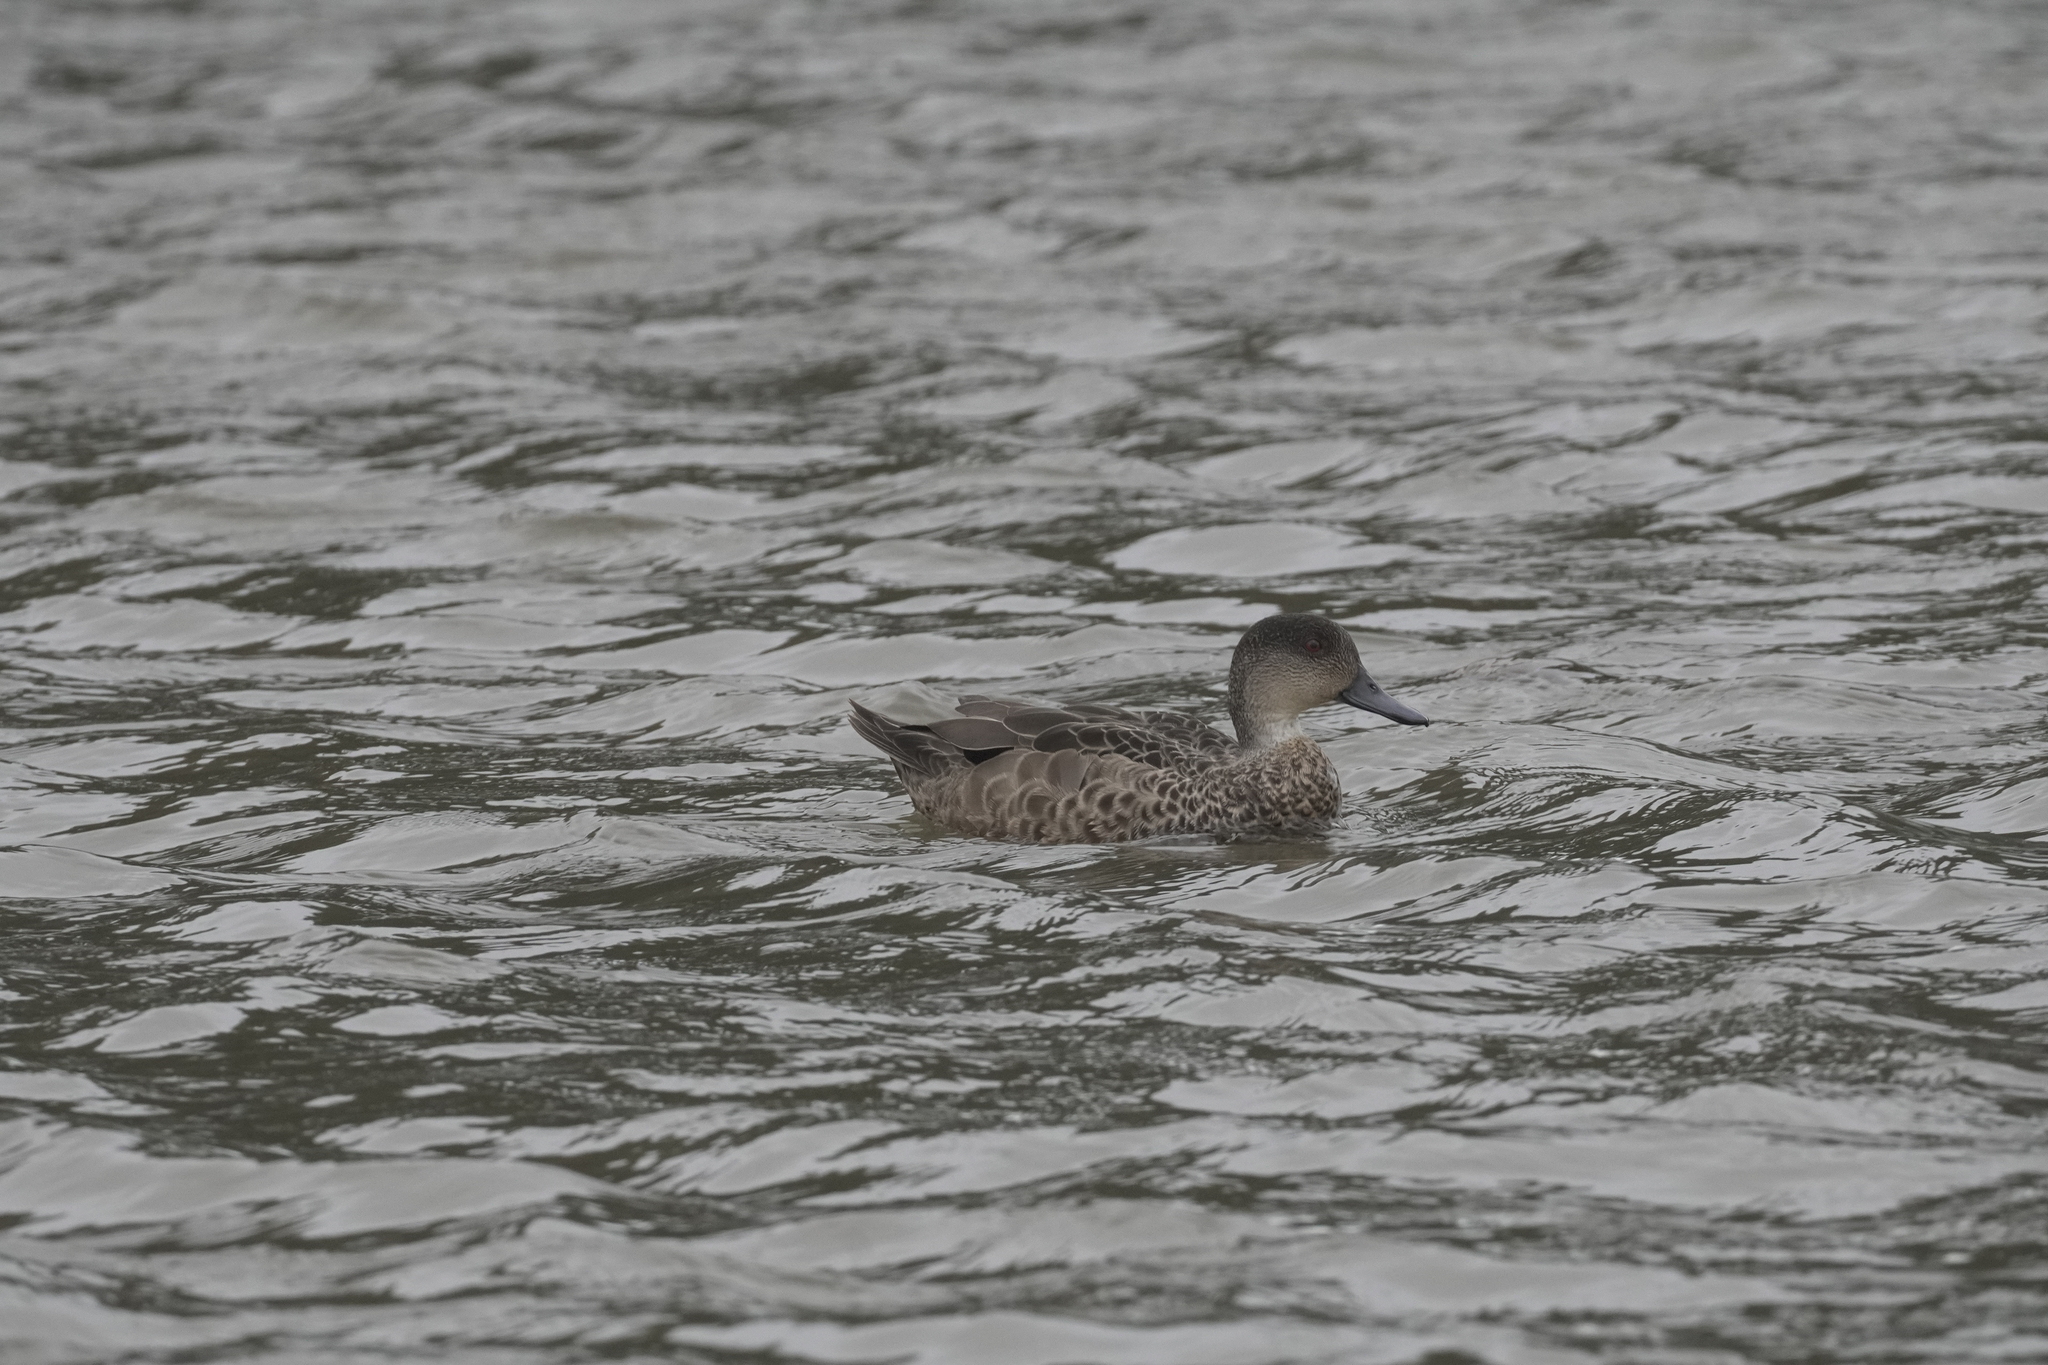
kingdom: Animalia
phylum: Chordata
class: Aves
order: Anseriformes
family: Anatidae
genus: Anas
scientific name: Anas gracilis
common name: Grey teal
